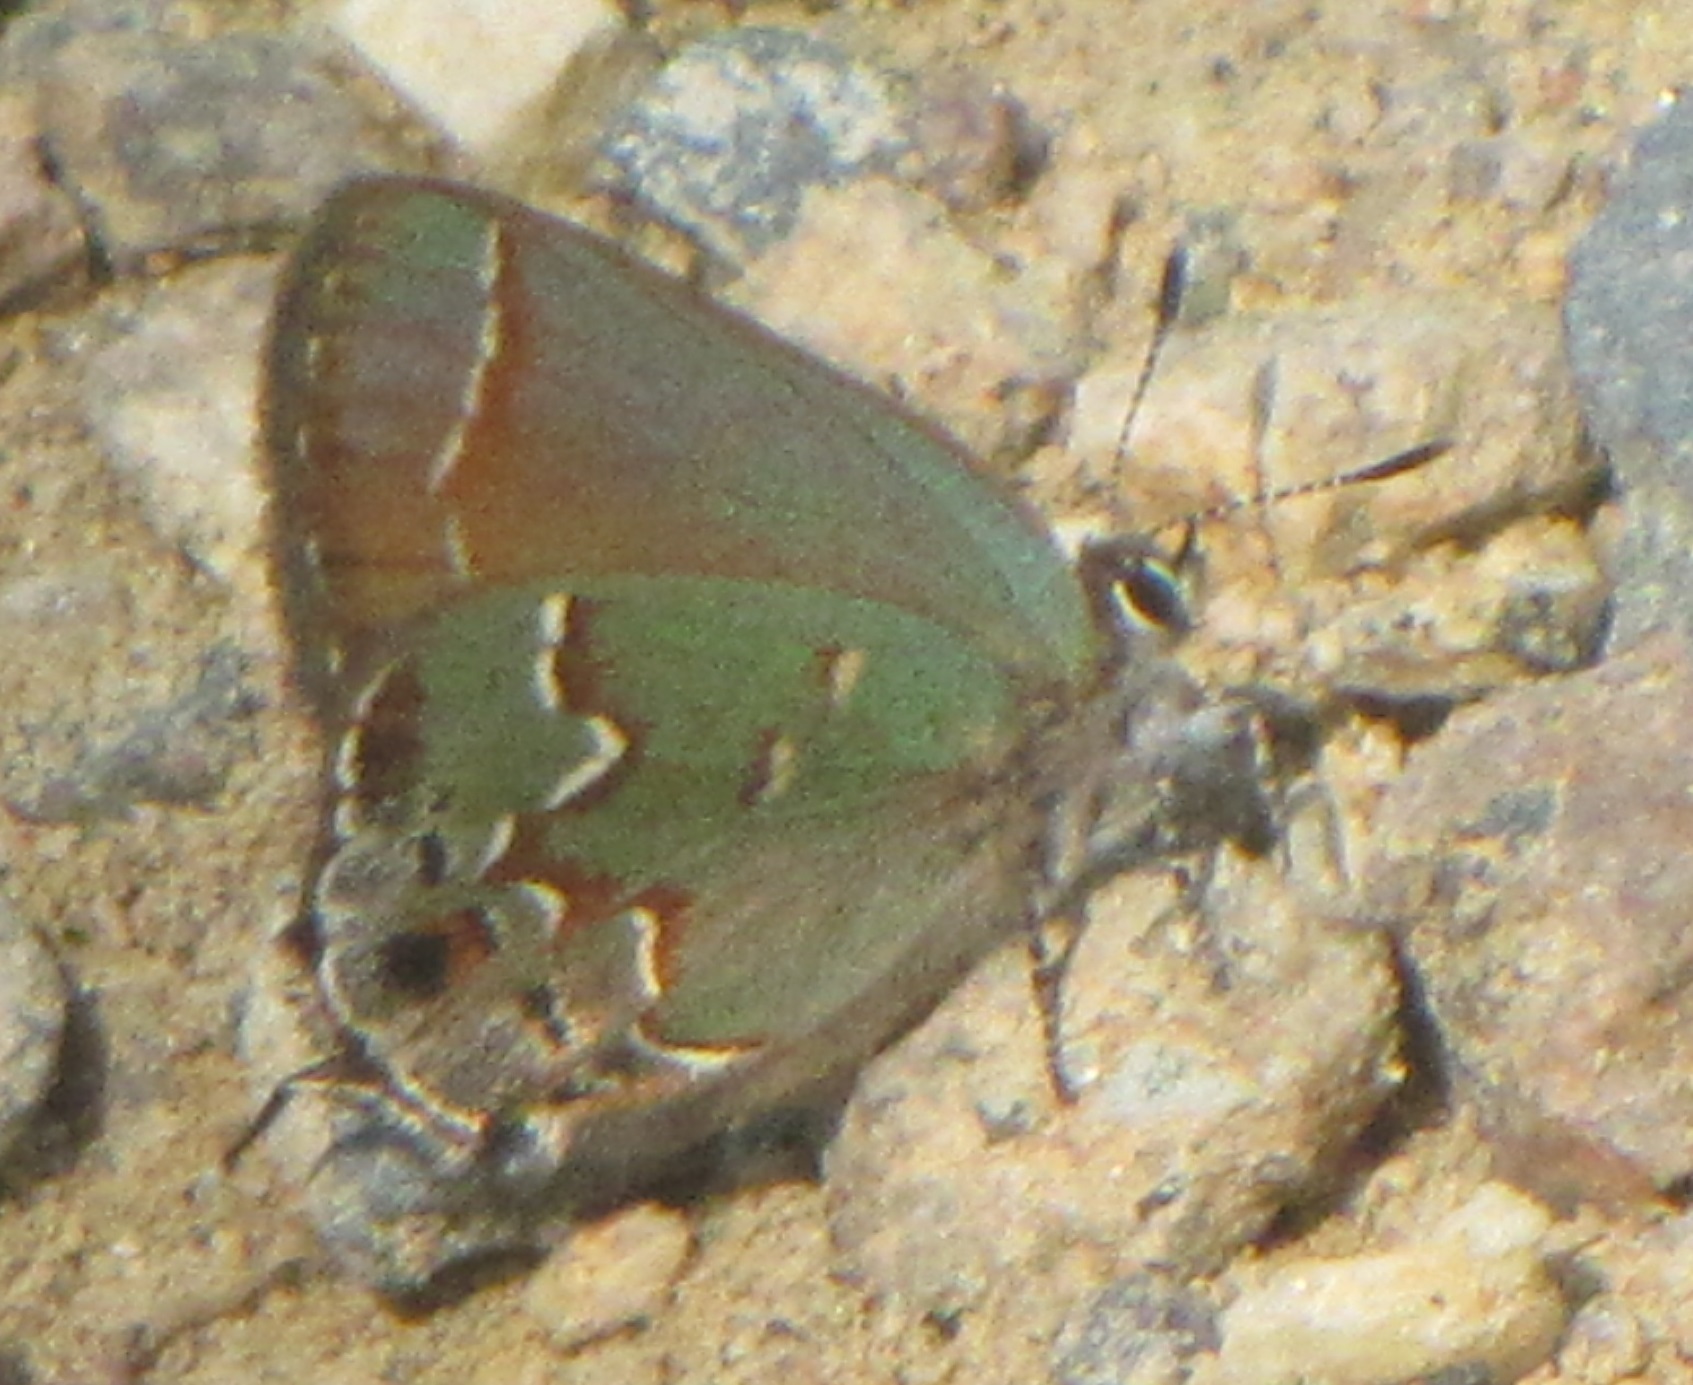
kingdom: Animalia
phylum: Arthropoda
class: Insecta
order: Lepidoptera
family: Lycaenidae
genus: Mitoura
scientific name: Mitoura gryneus
